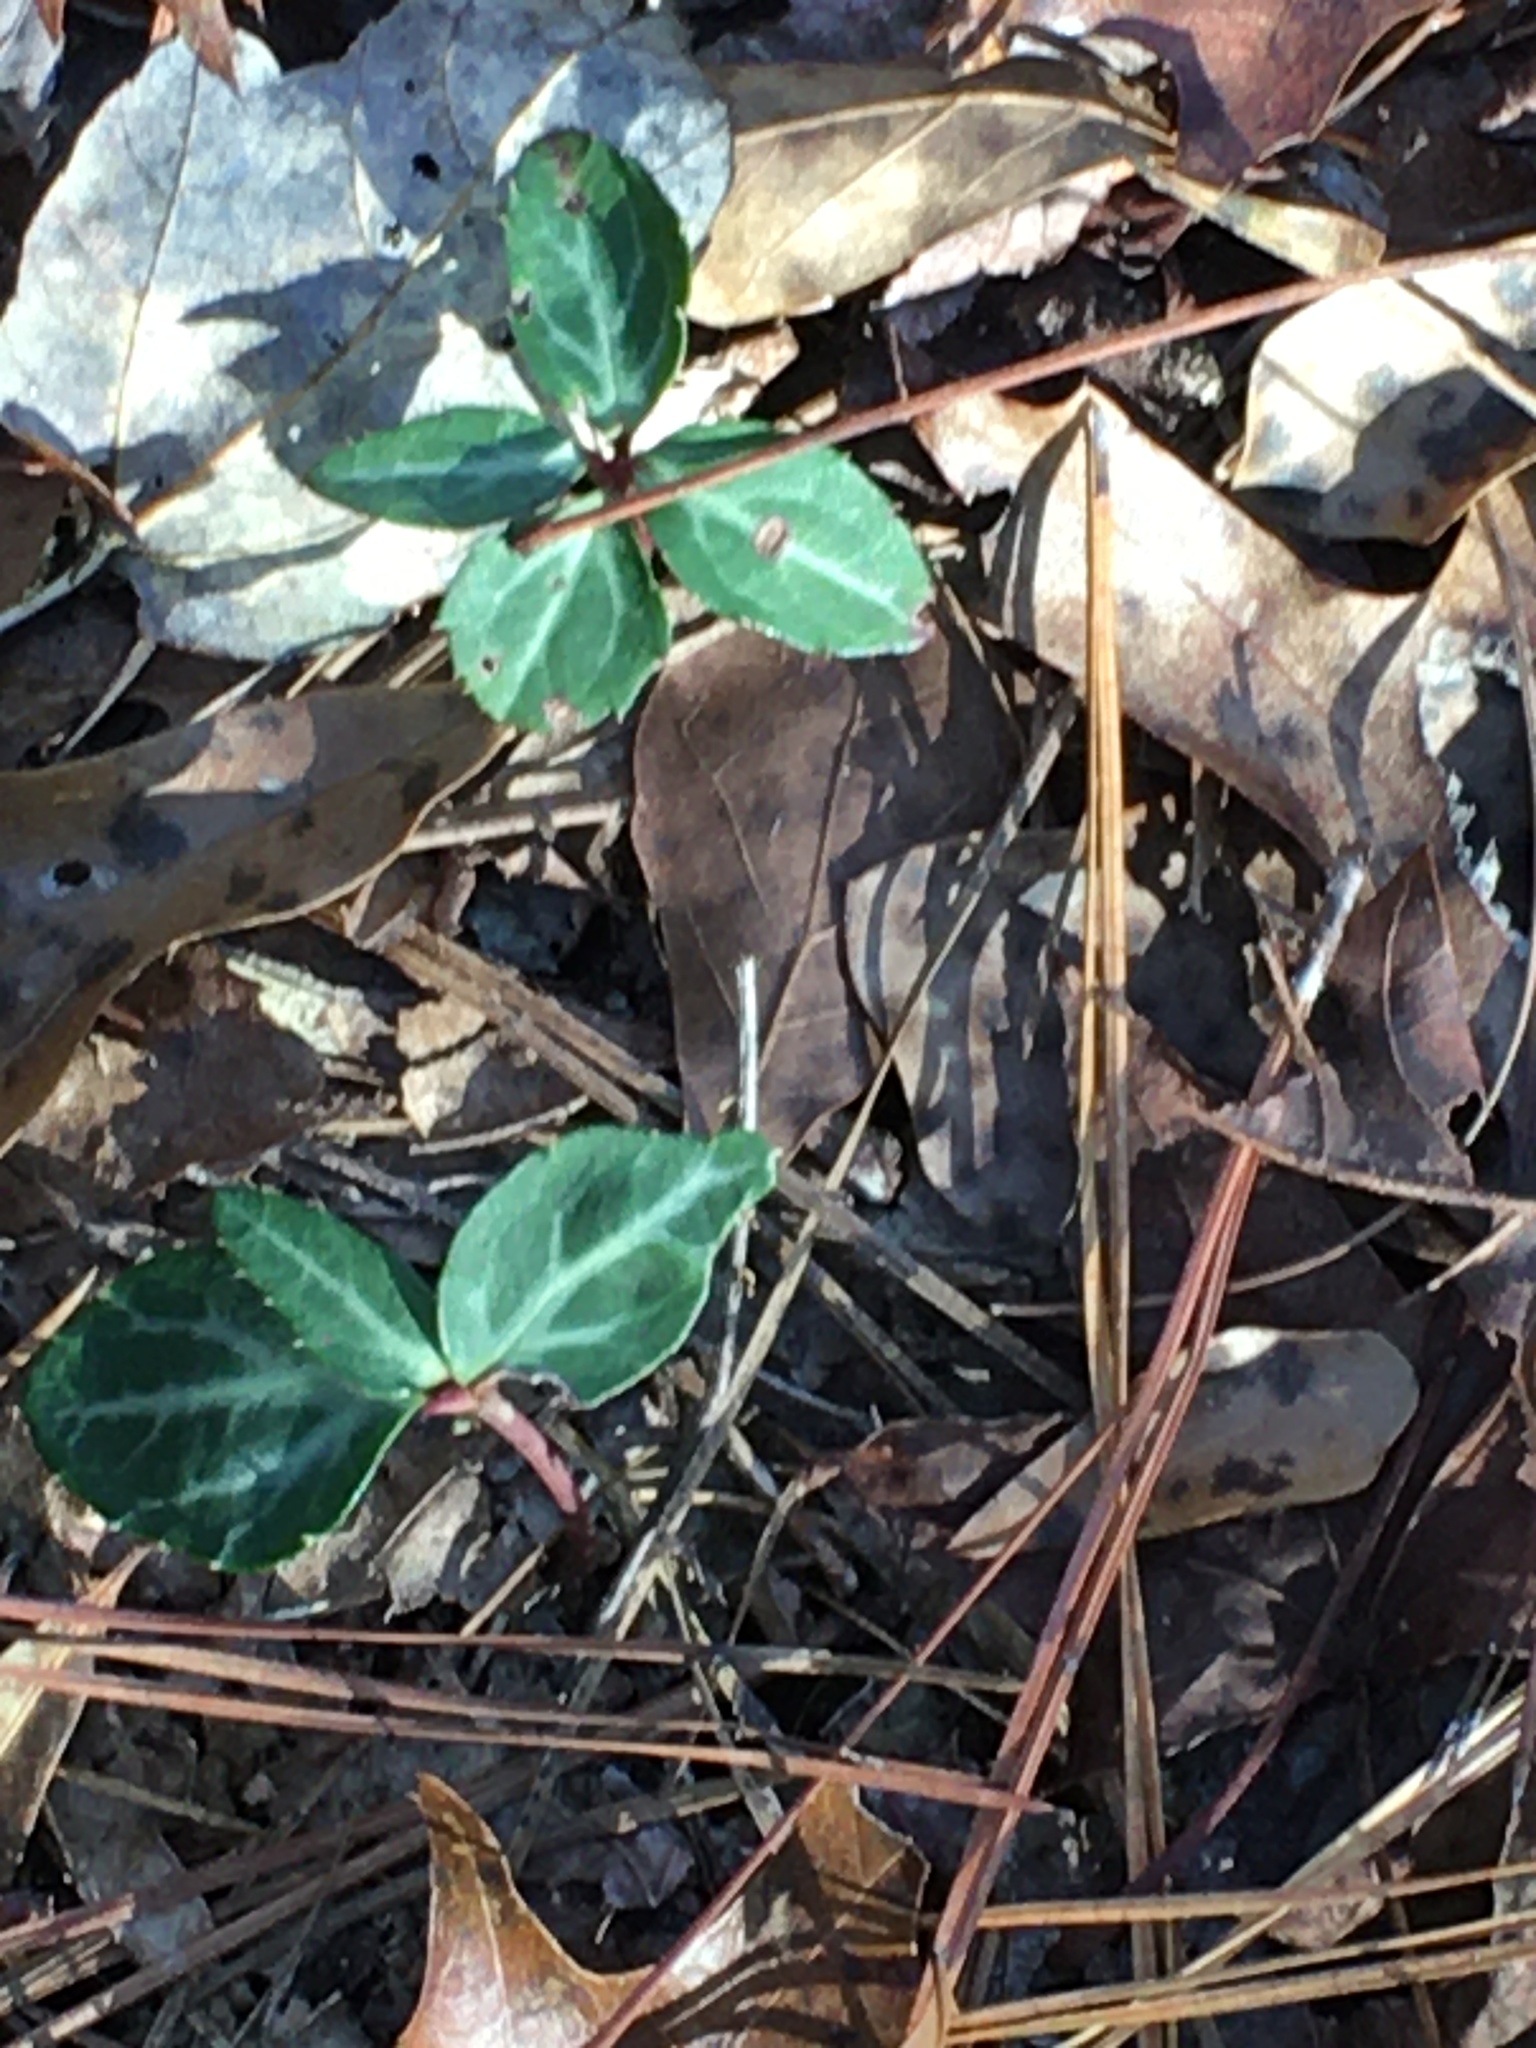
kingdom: Plantae
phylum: Tracheophyta
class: Magnoliopsida
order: Ericales
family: Ericaceae
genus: Chimaphila
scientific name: Chimaphila maculata
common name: Spotted pipsissewa
